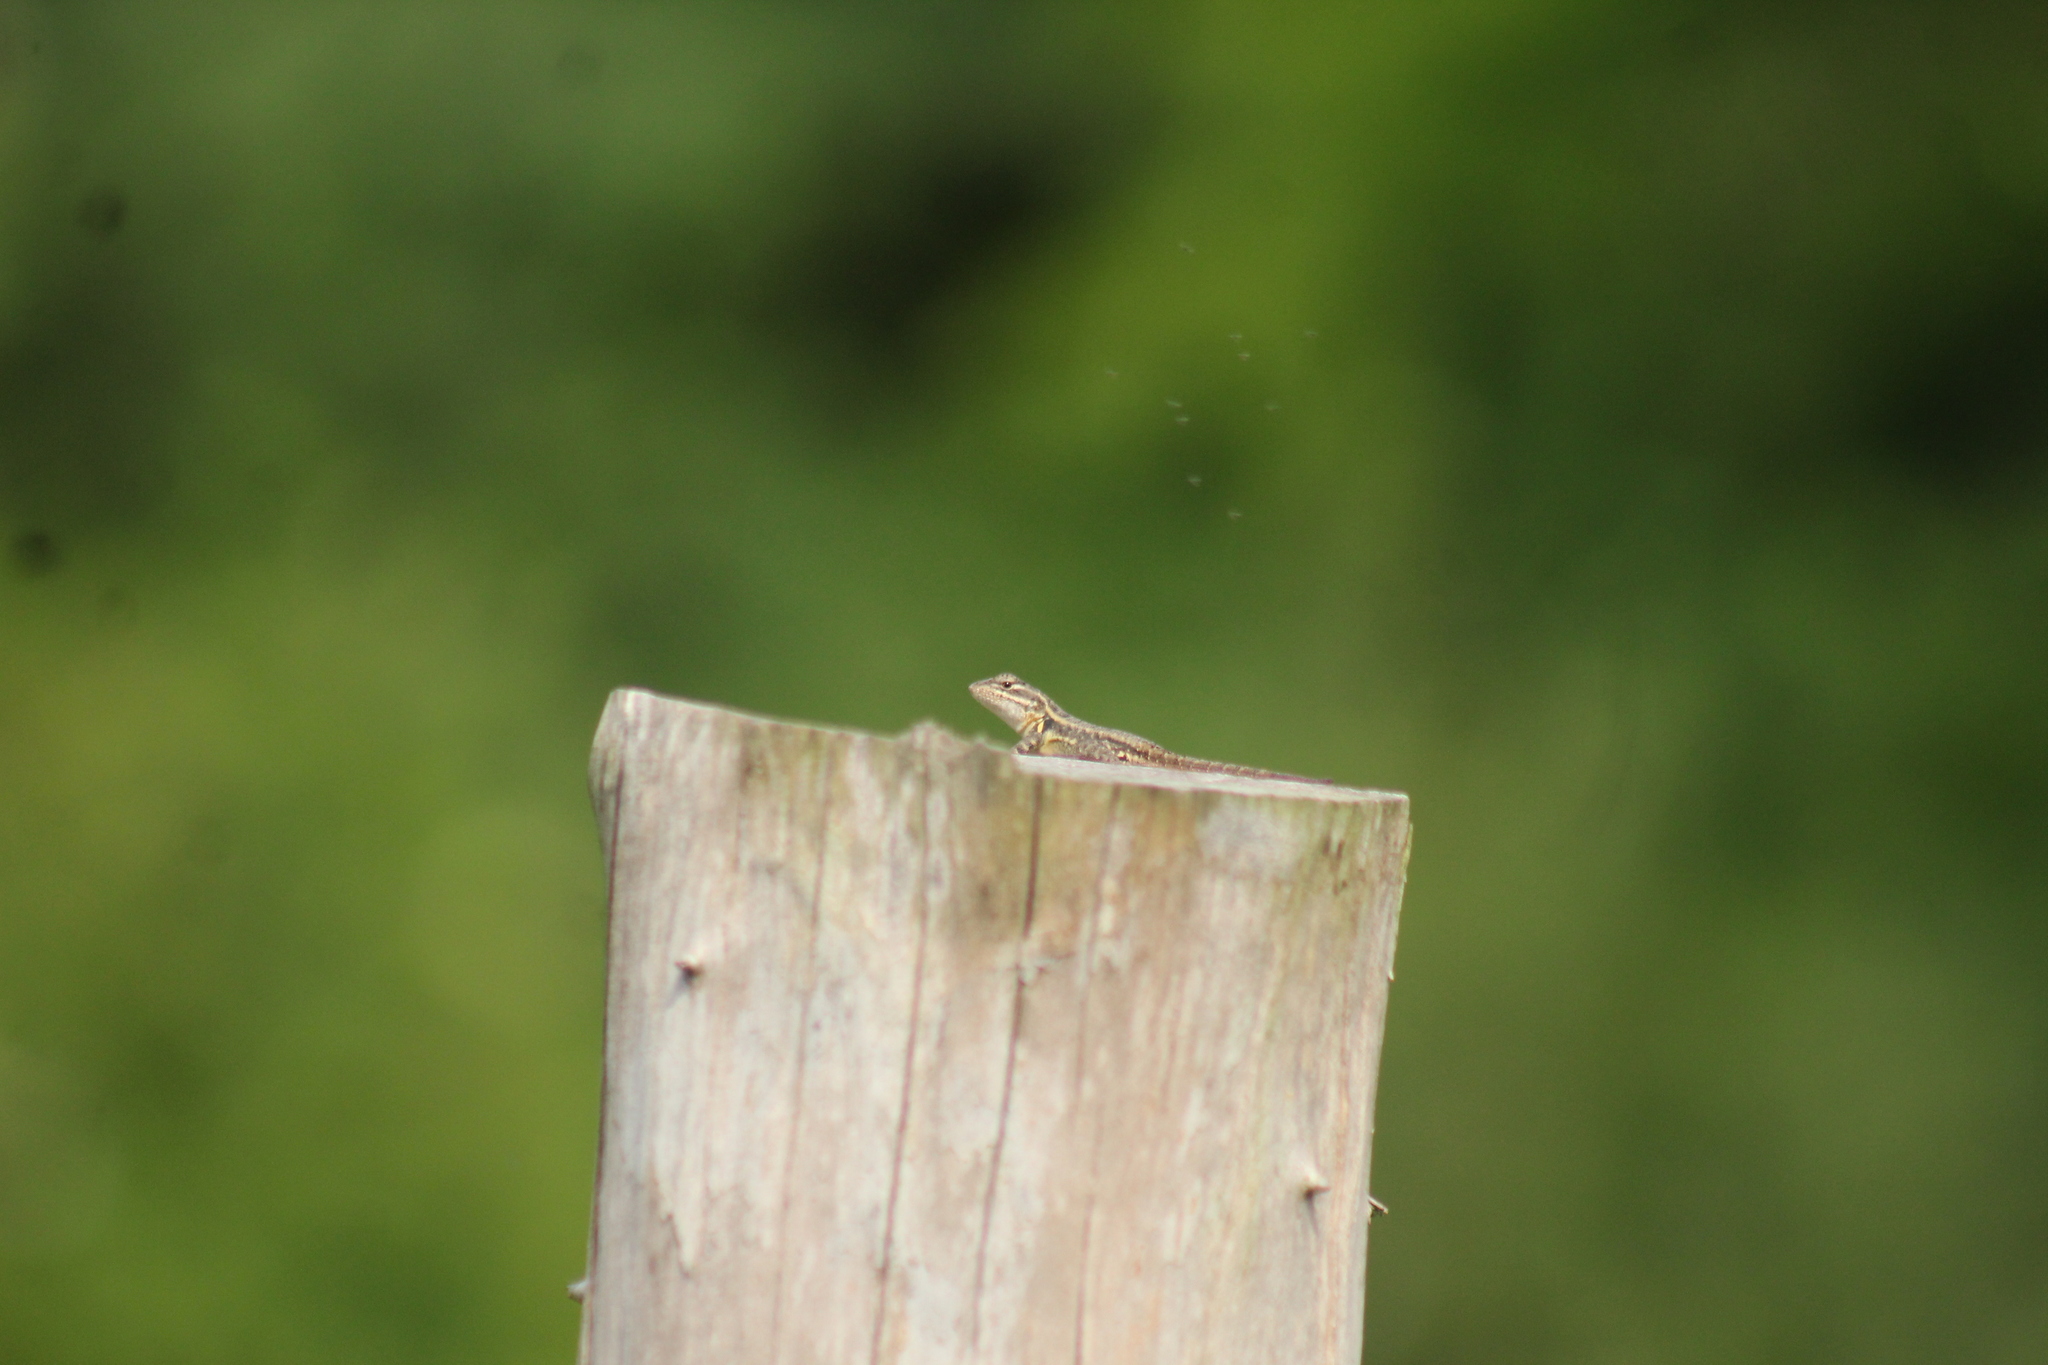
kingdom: Animalia
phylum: Chordata
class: Squamata
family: Phrynosomatidae
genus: Sceloporus
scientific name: Sceloporus variabilis
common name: Rosebelly lizard
